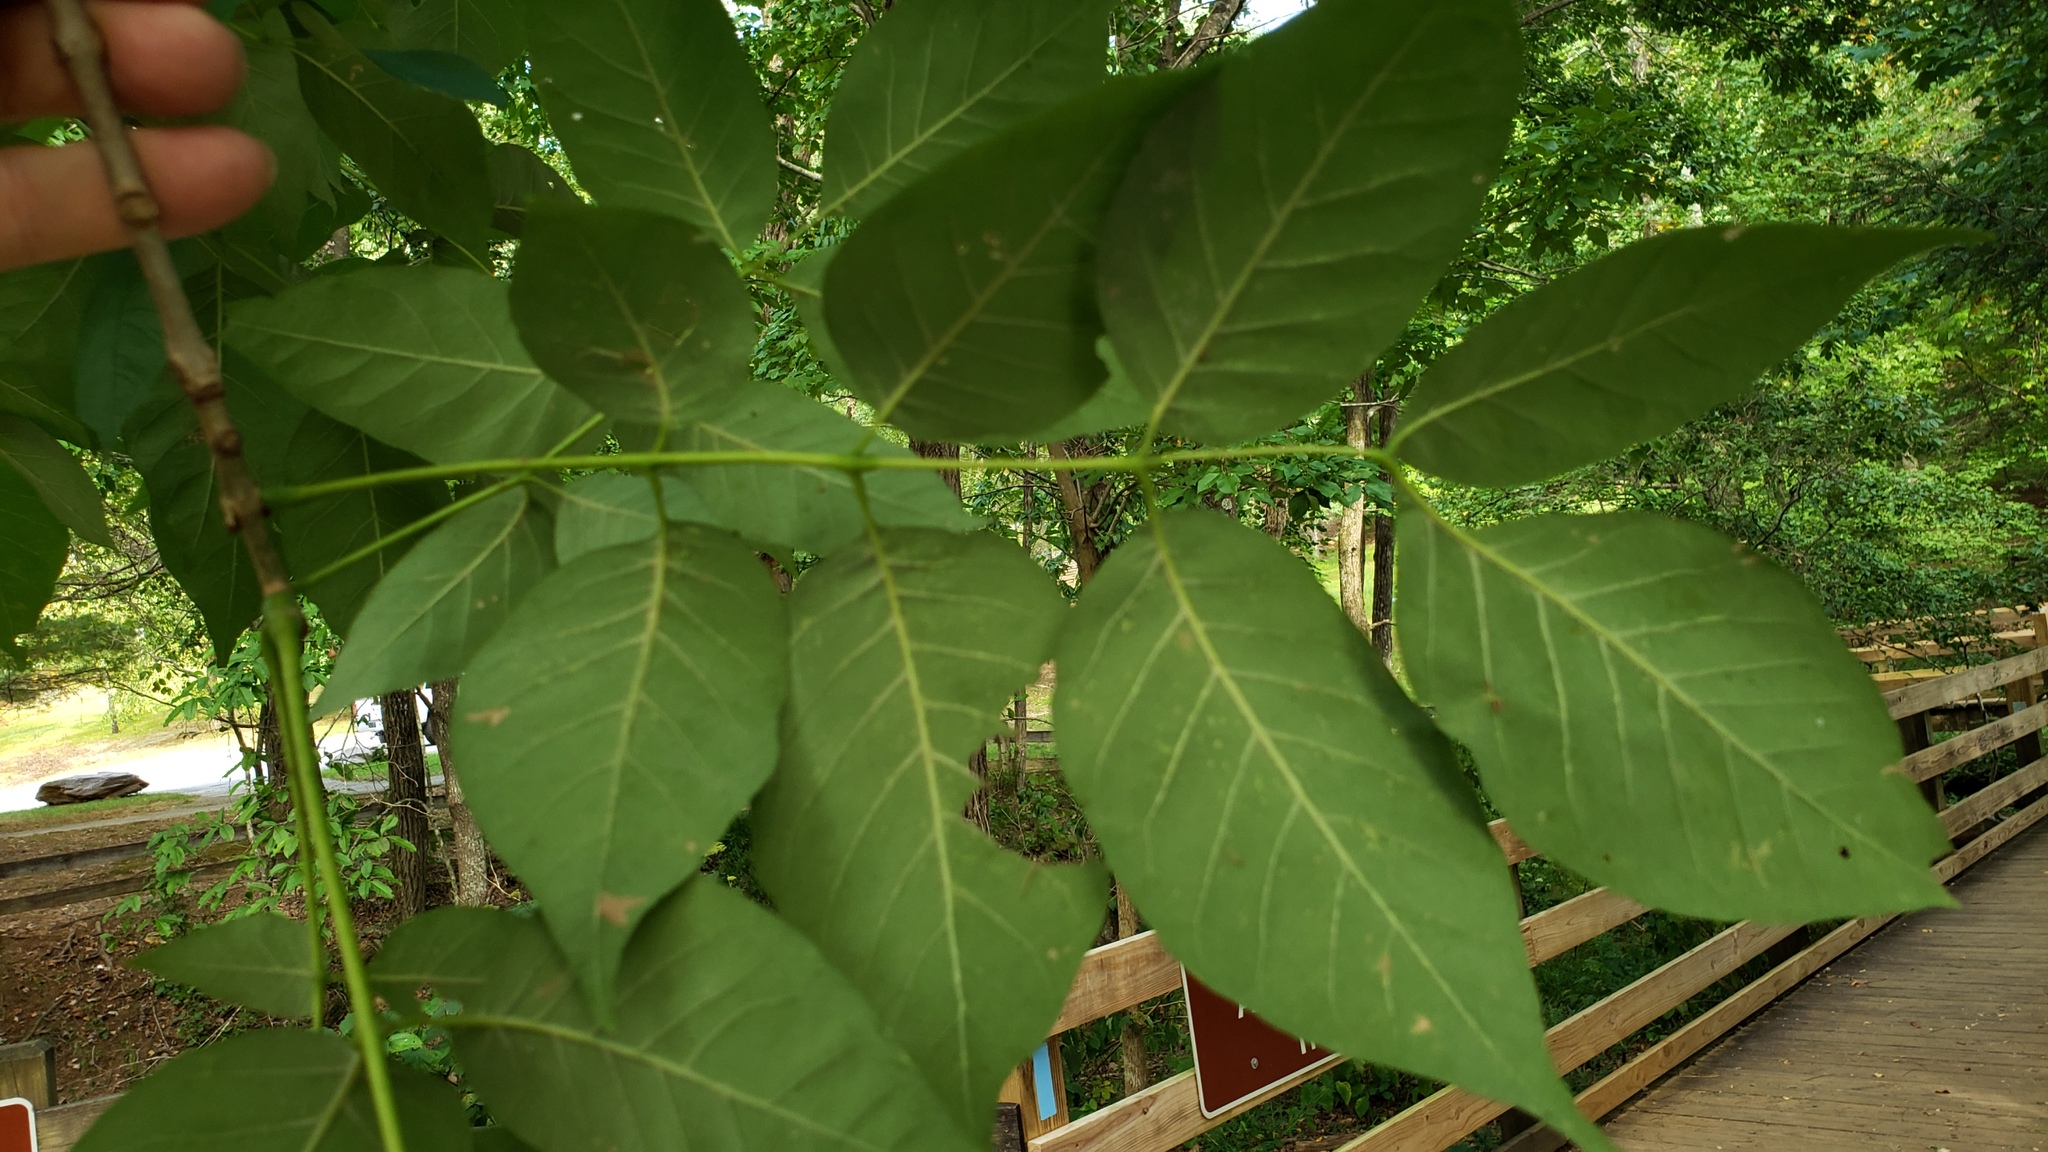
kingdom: Plantae
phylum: Tracheophyta
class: Magnoliopsida
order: Lamiales
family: Oleaceae
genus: Fraxinus
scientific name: Fraxinus pennsylvanica
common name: Green ash
